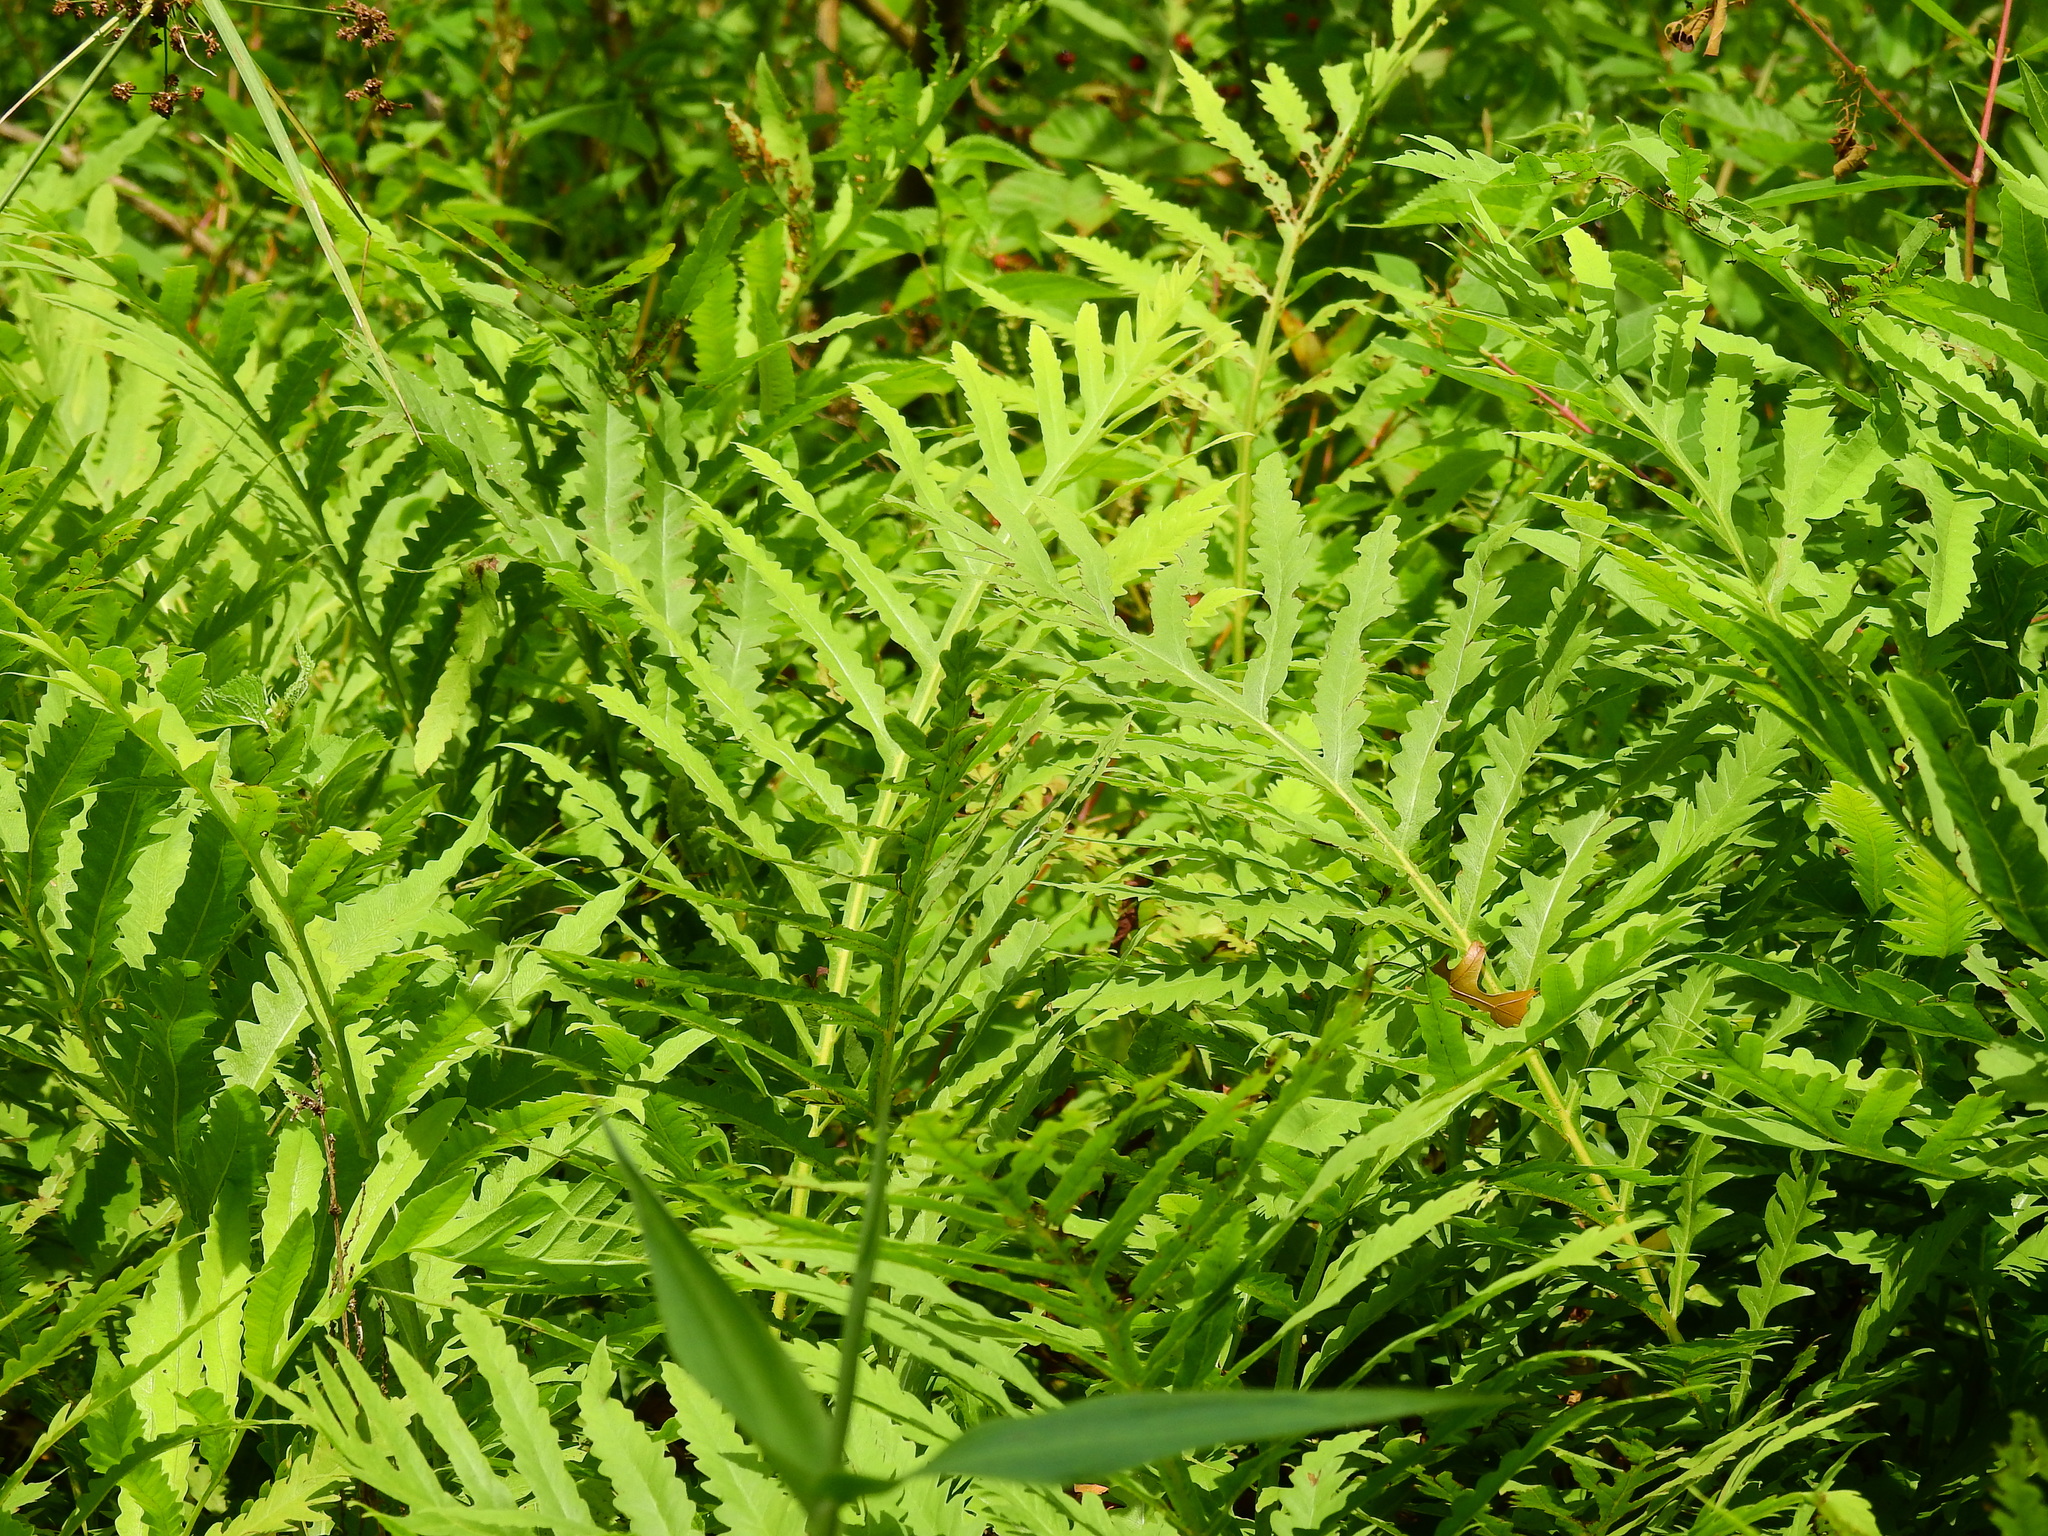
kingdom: Plantae
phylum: Tracheophyta
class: Polypodiopsida
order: Polypodiales
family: Onocleaceae
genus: Onoclea
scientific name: Onoclea sensibilis
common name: Sensitive fern
